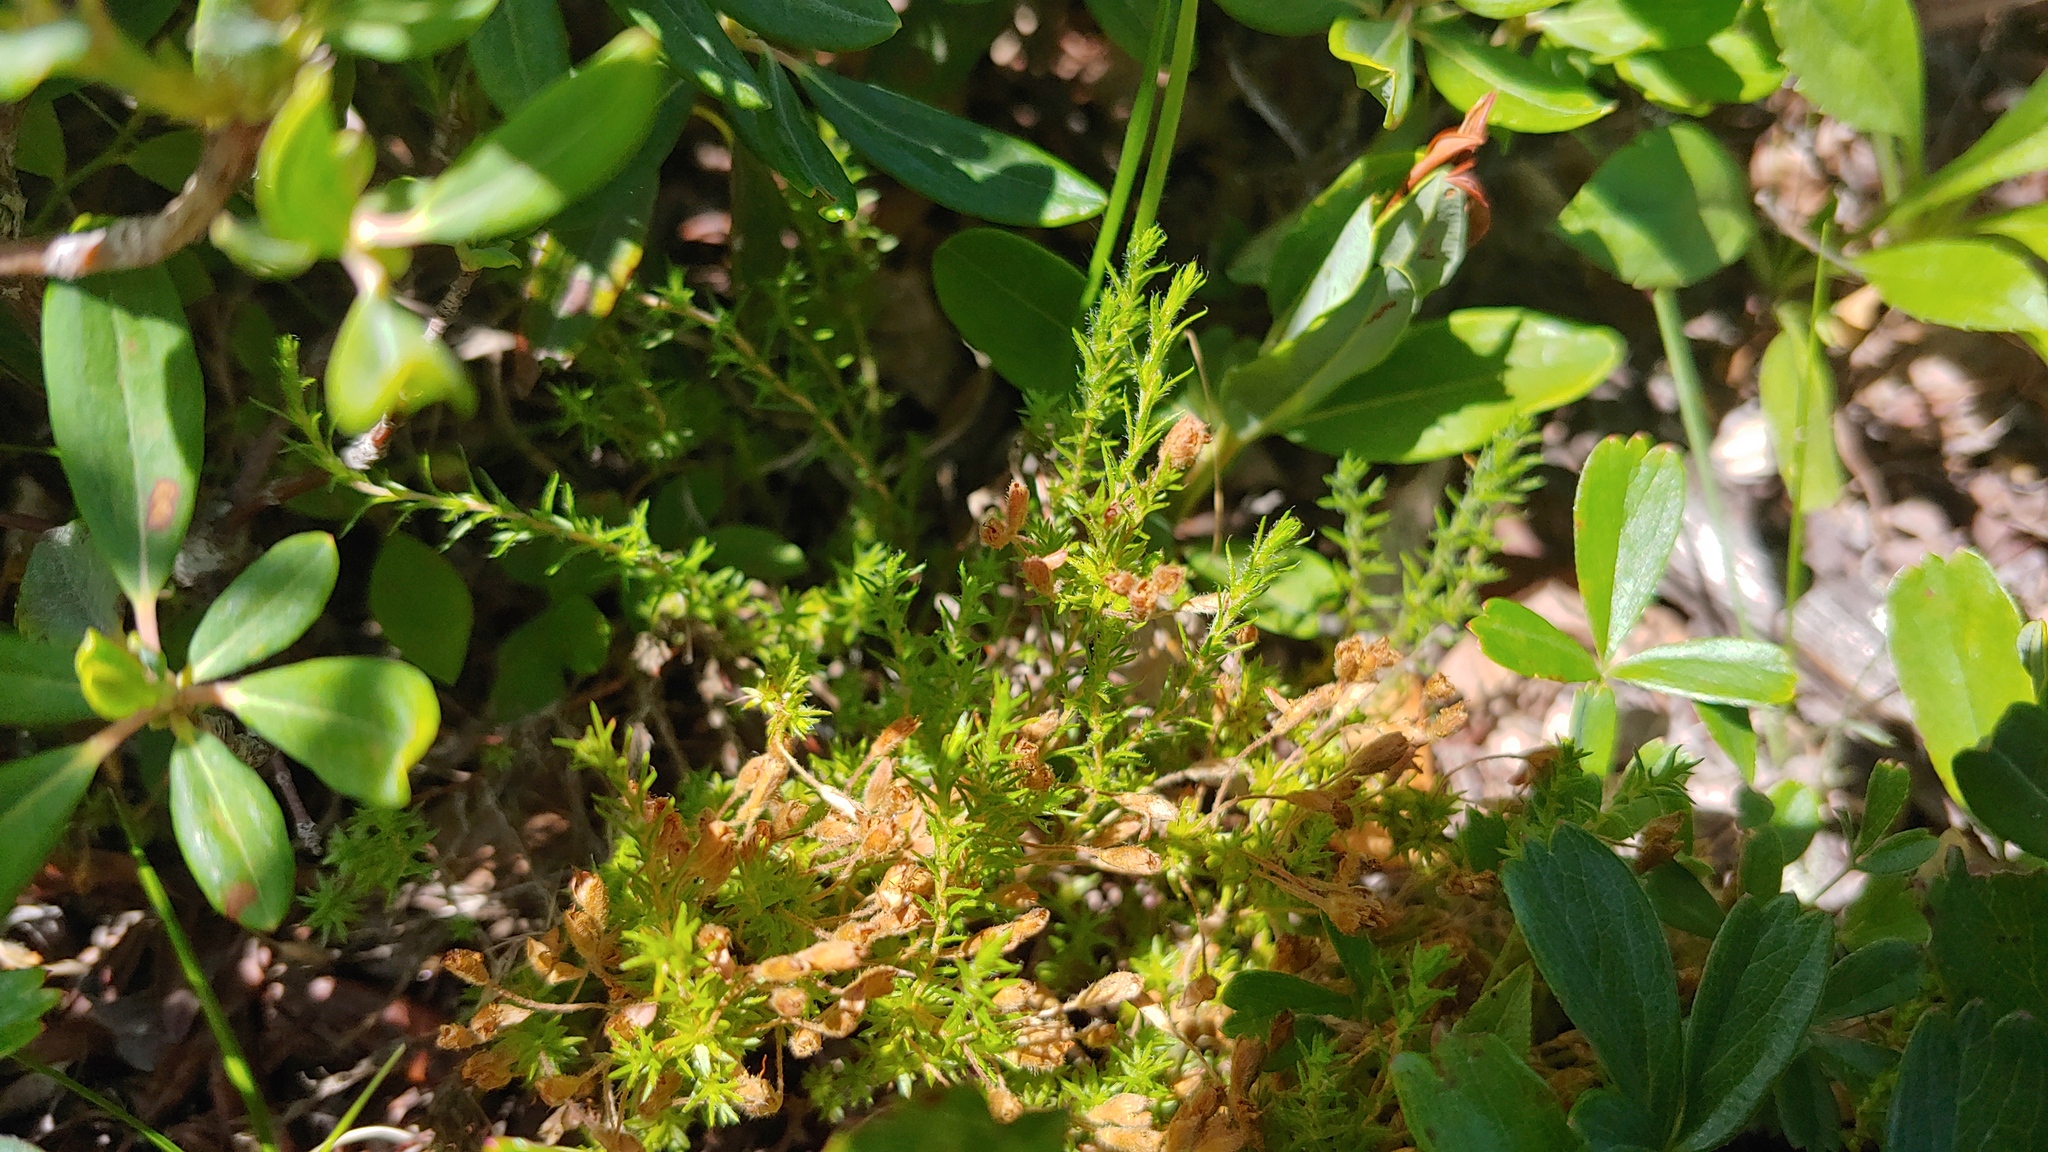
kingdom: Plantae
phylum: Tracheophyta
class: Magnoliopsida
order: Malvales
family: Cistaceae
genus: Hudsonia
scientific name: Hudsonia ericoides
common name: Golden-heather
